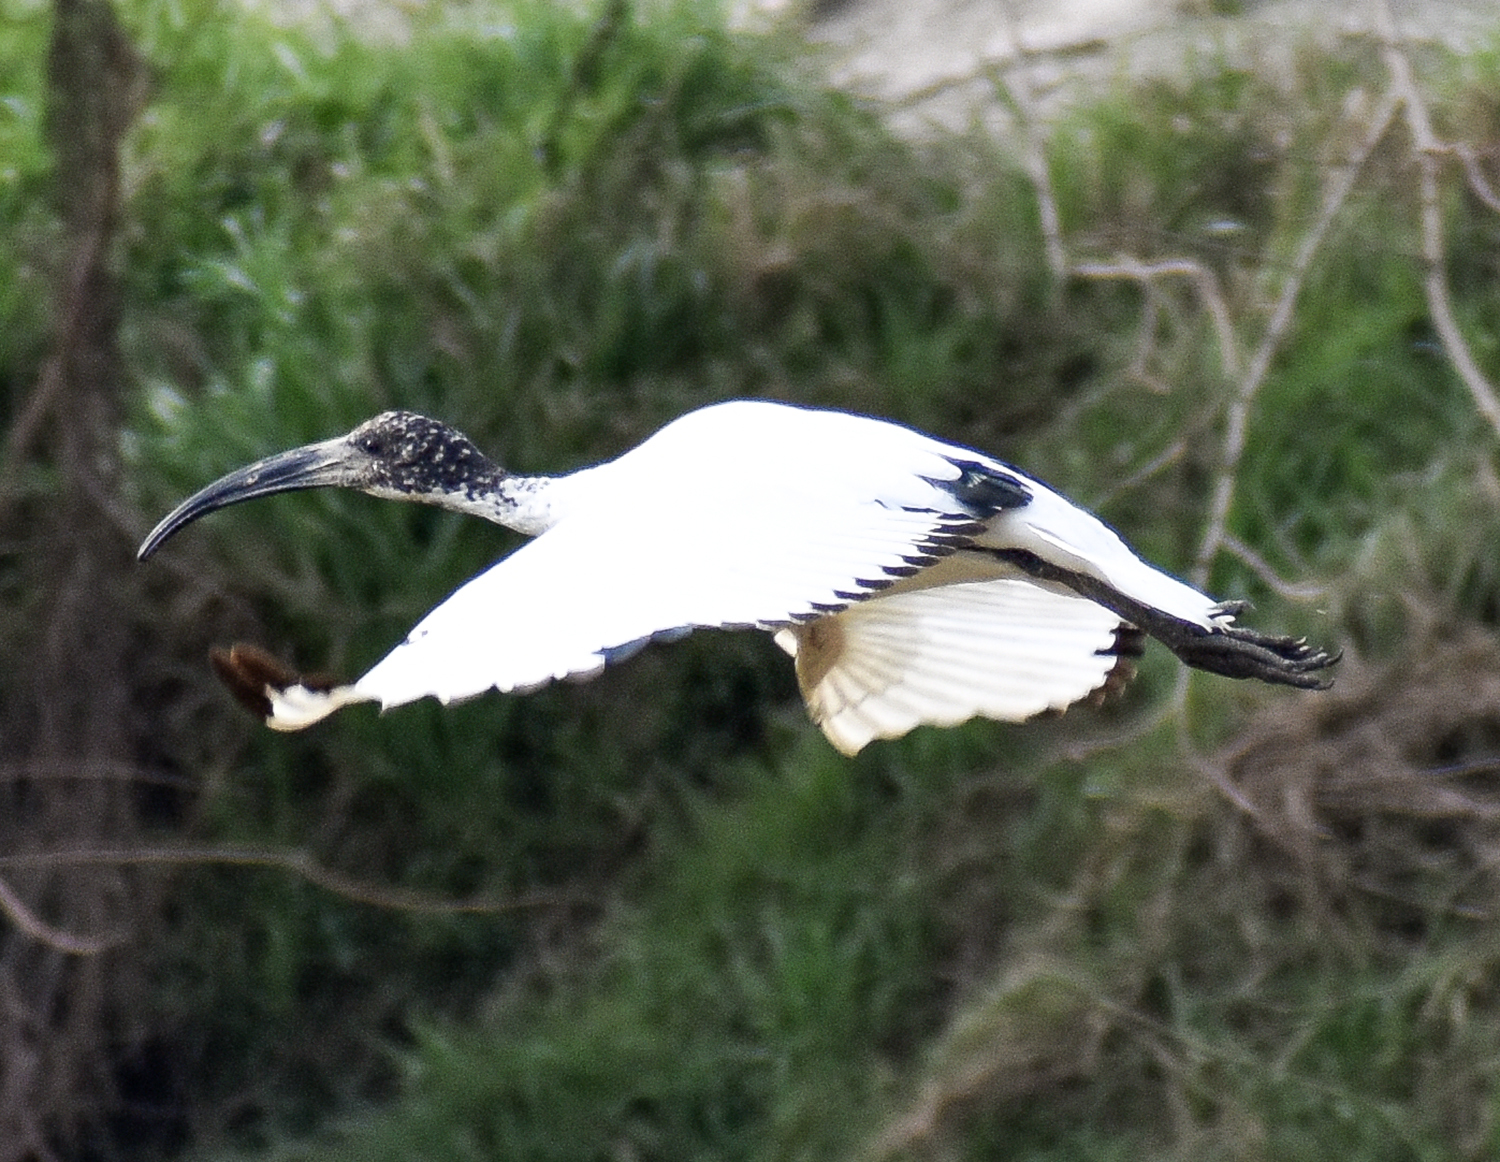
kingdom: Animalia
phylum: Chordata
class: Aves
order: Pelecaniformes
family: Threskiornithidae
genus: Threskiornis
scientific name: Threskiornis aethiopicus
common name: Sacred ibis
